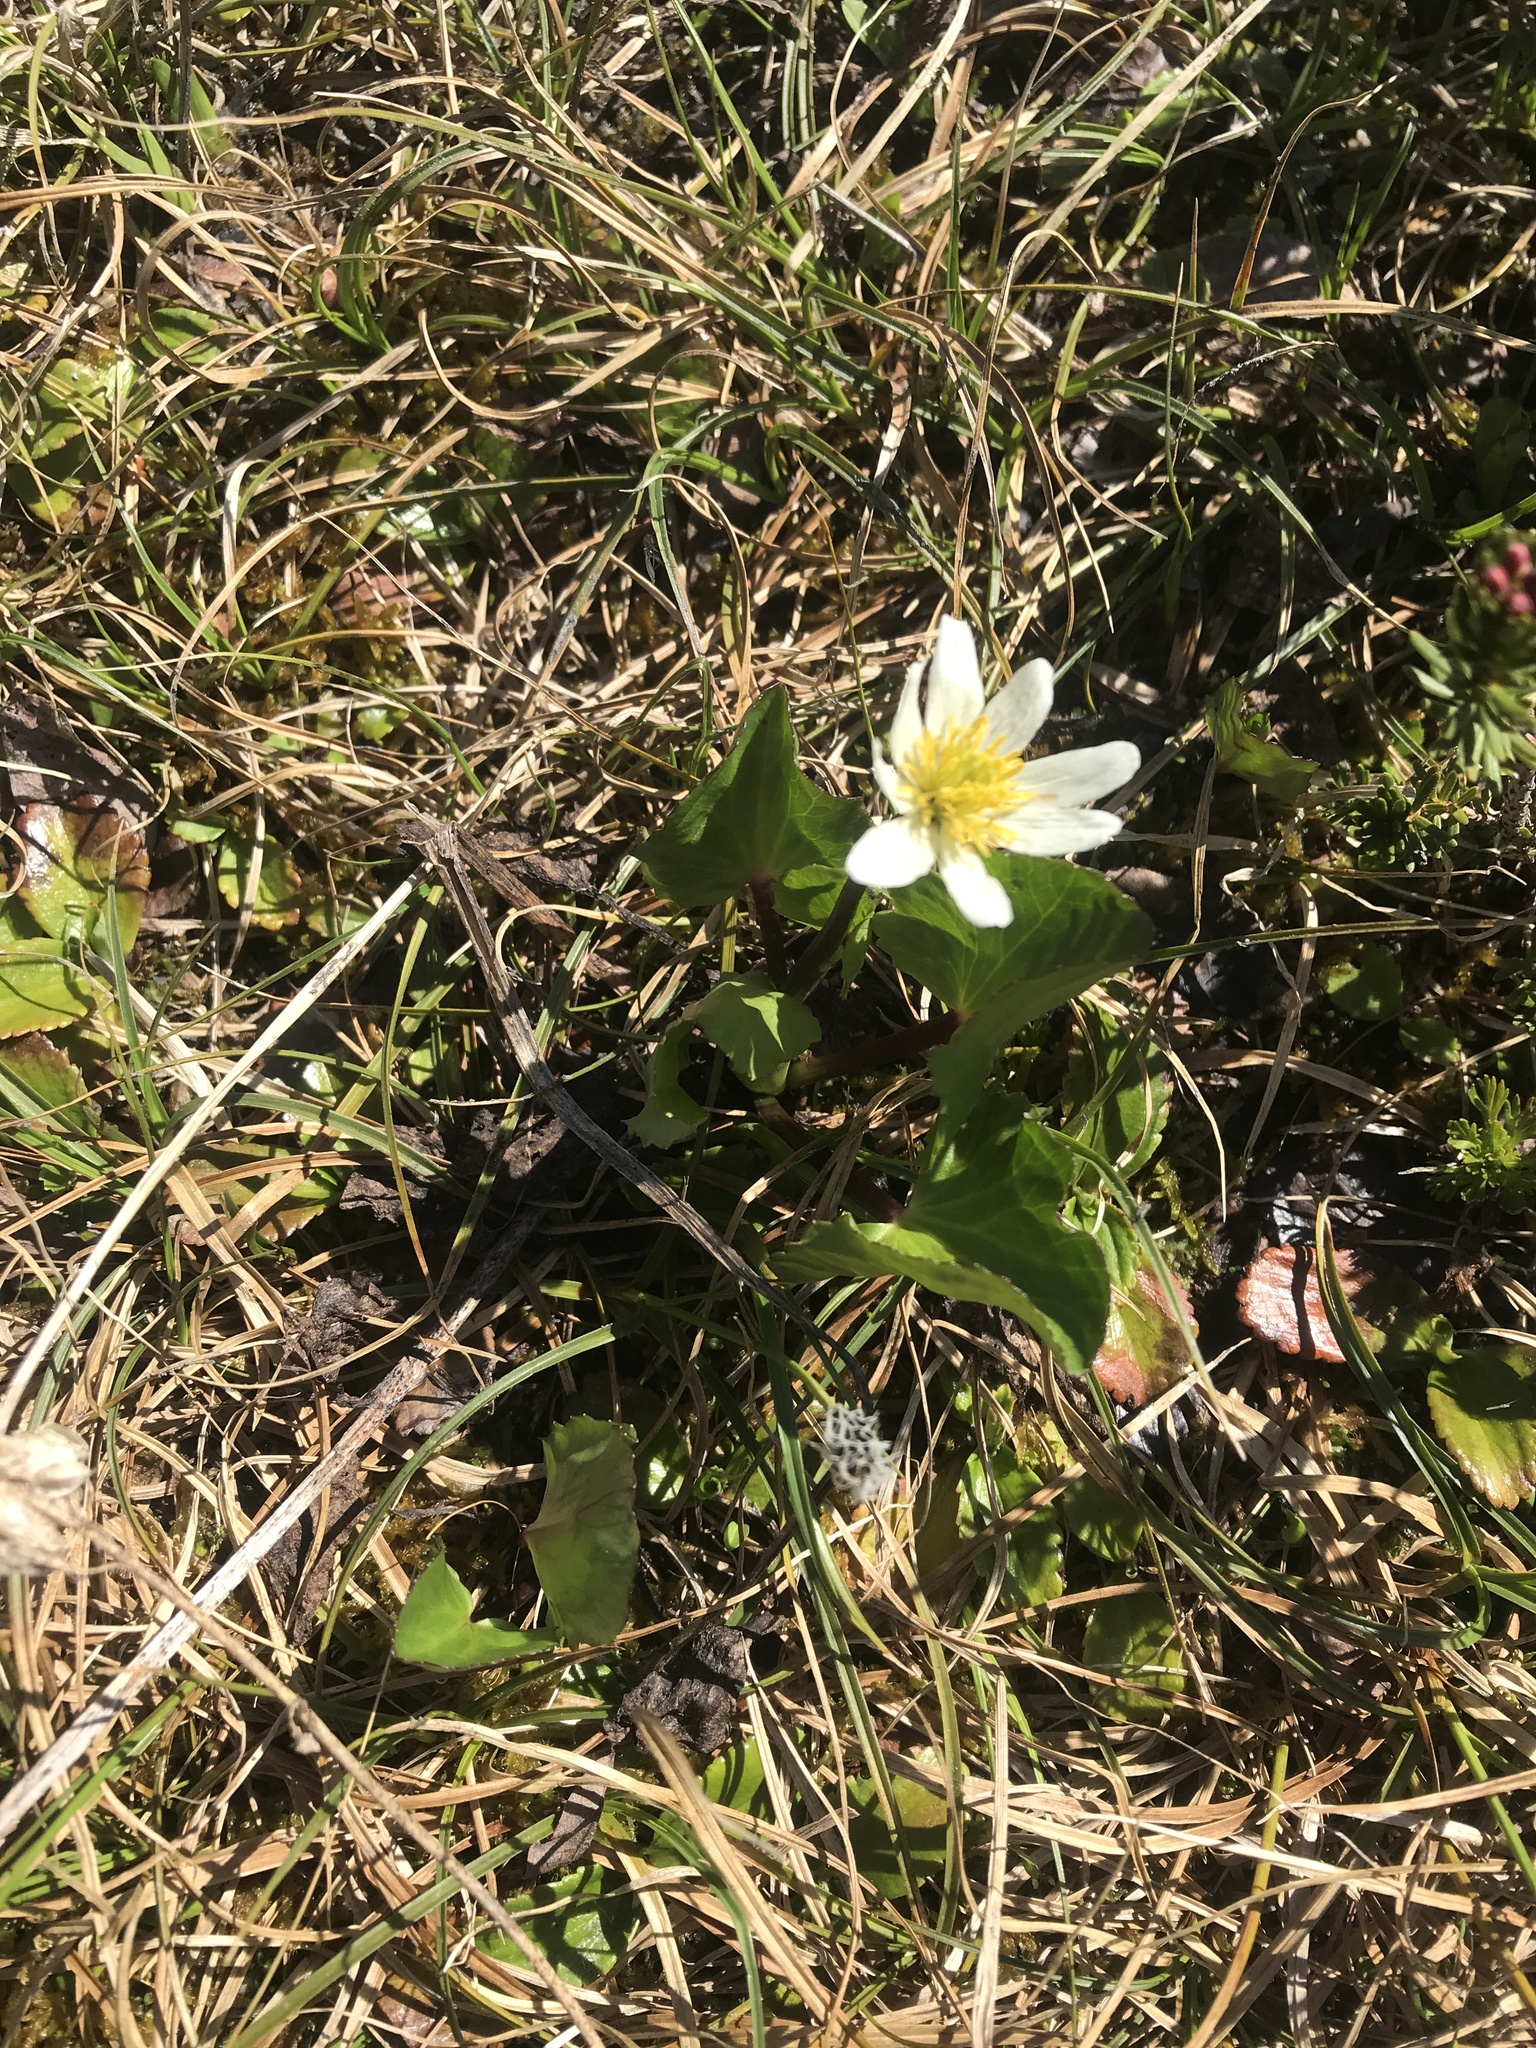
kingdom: Plantae
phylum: Tracheophyta
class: Magnoliopsida
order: Ranunculales
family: Ranunculaceae
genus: Caltha
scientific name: Caltha leptosepala
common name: Elkslip
